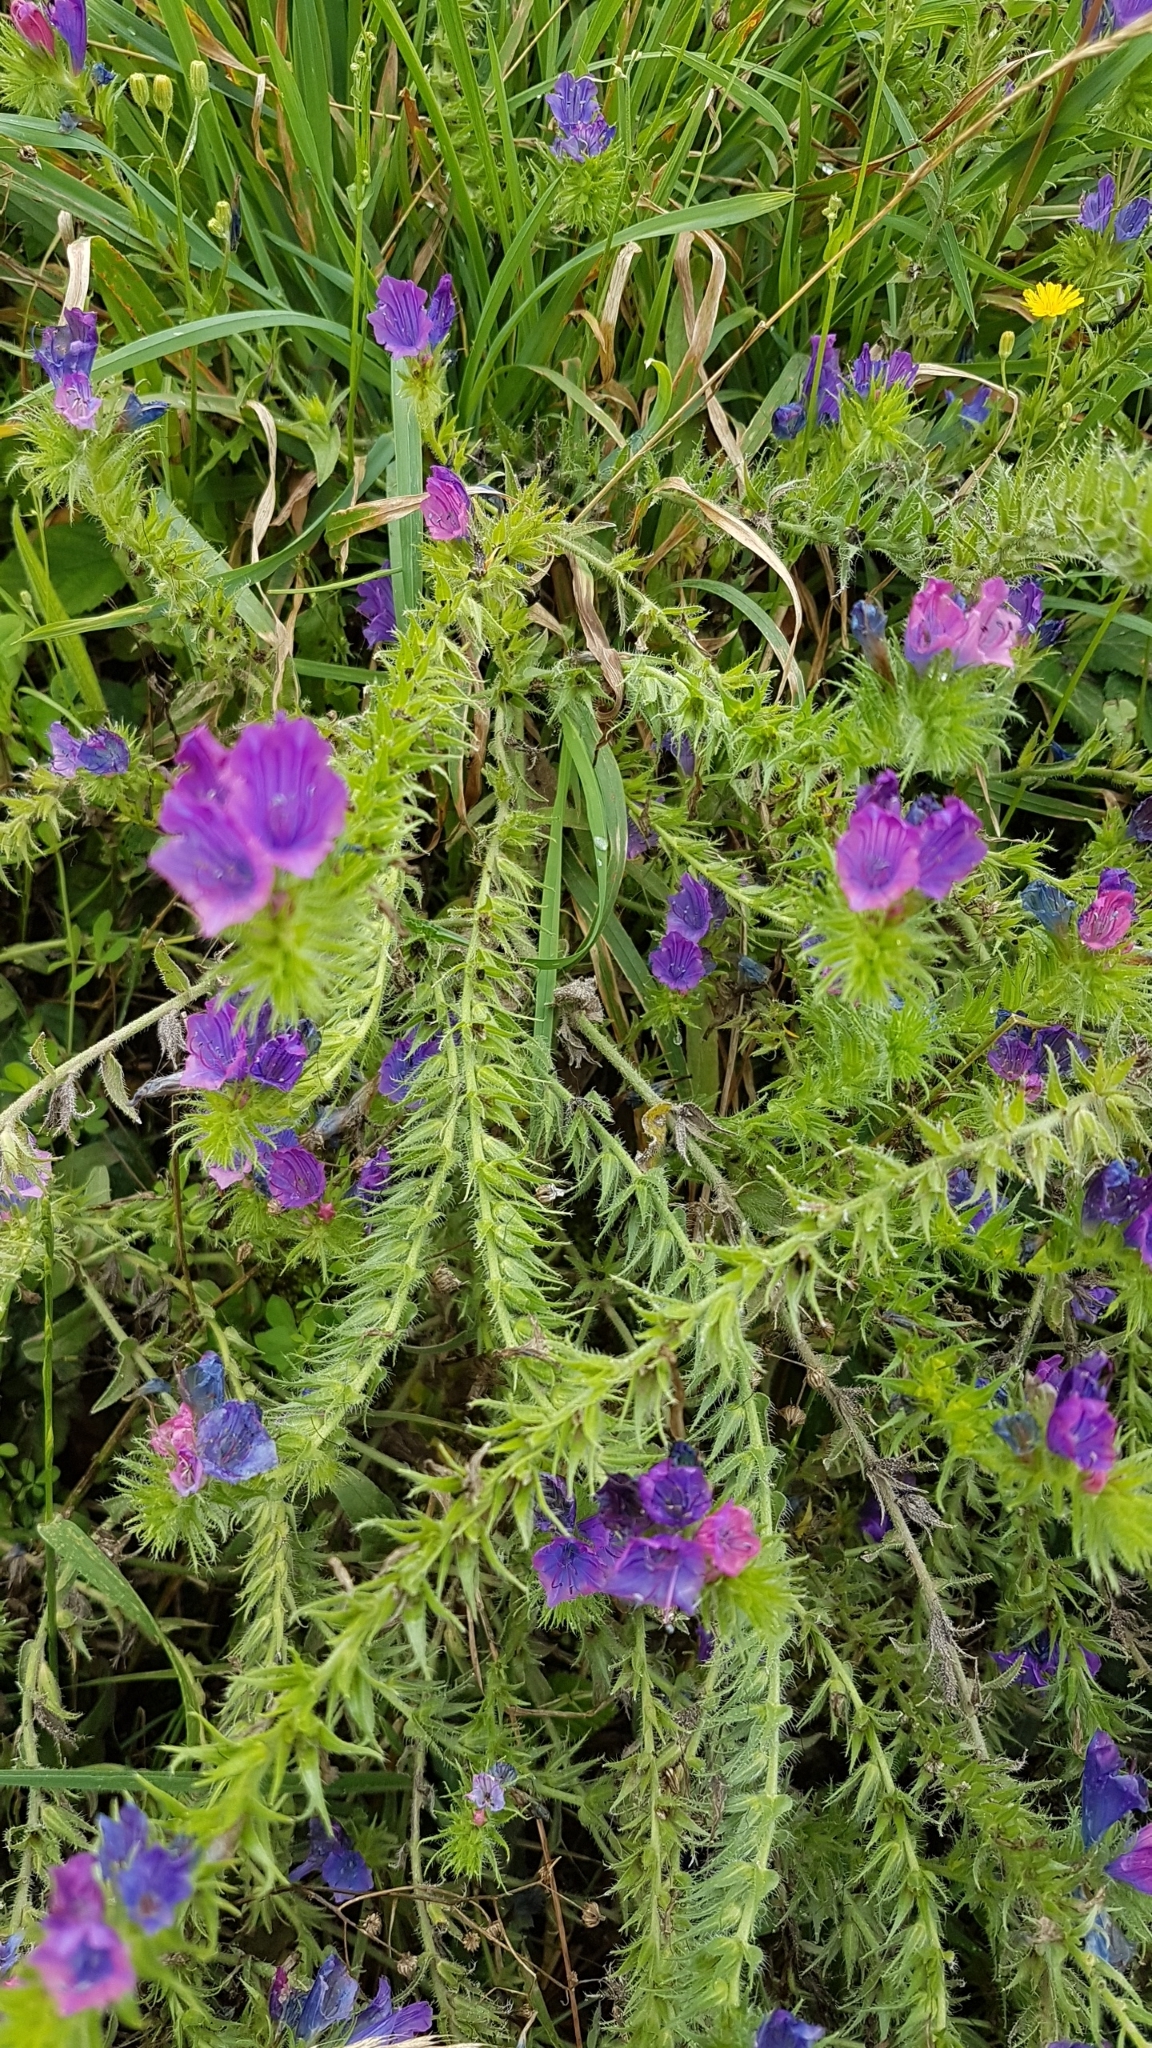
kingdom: Plantae
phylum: Tracheophyta
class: Magnoliopsida
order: Boraginales
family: Boraginaceae
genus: Echium
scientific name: Echium plantagineum
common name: Purple viper's-bugloss
